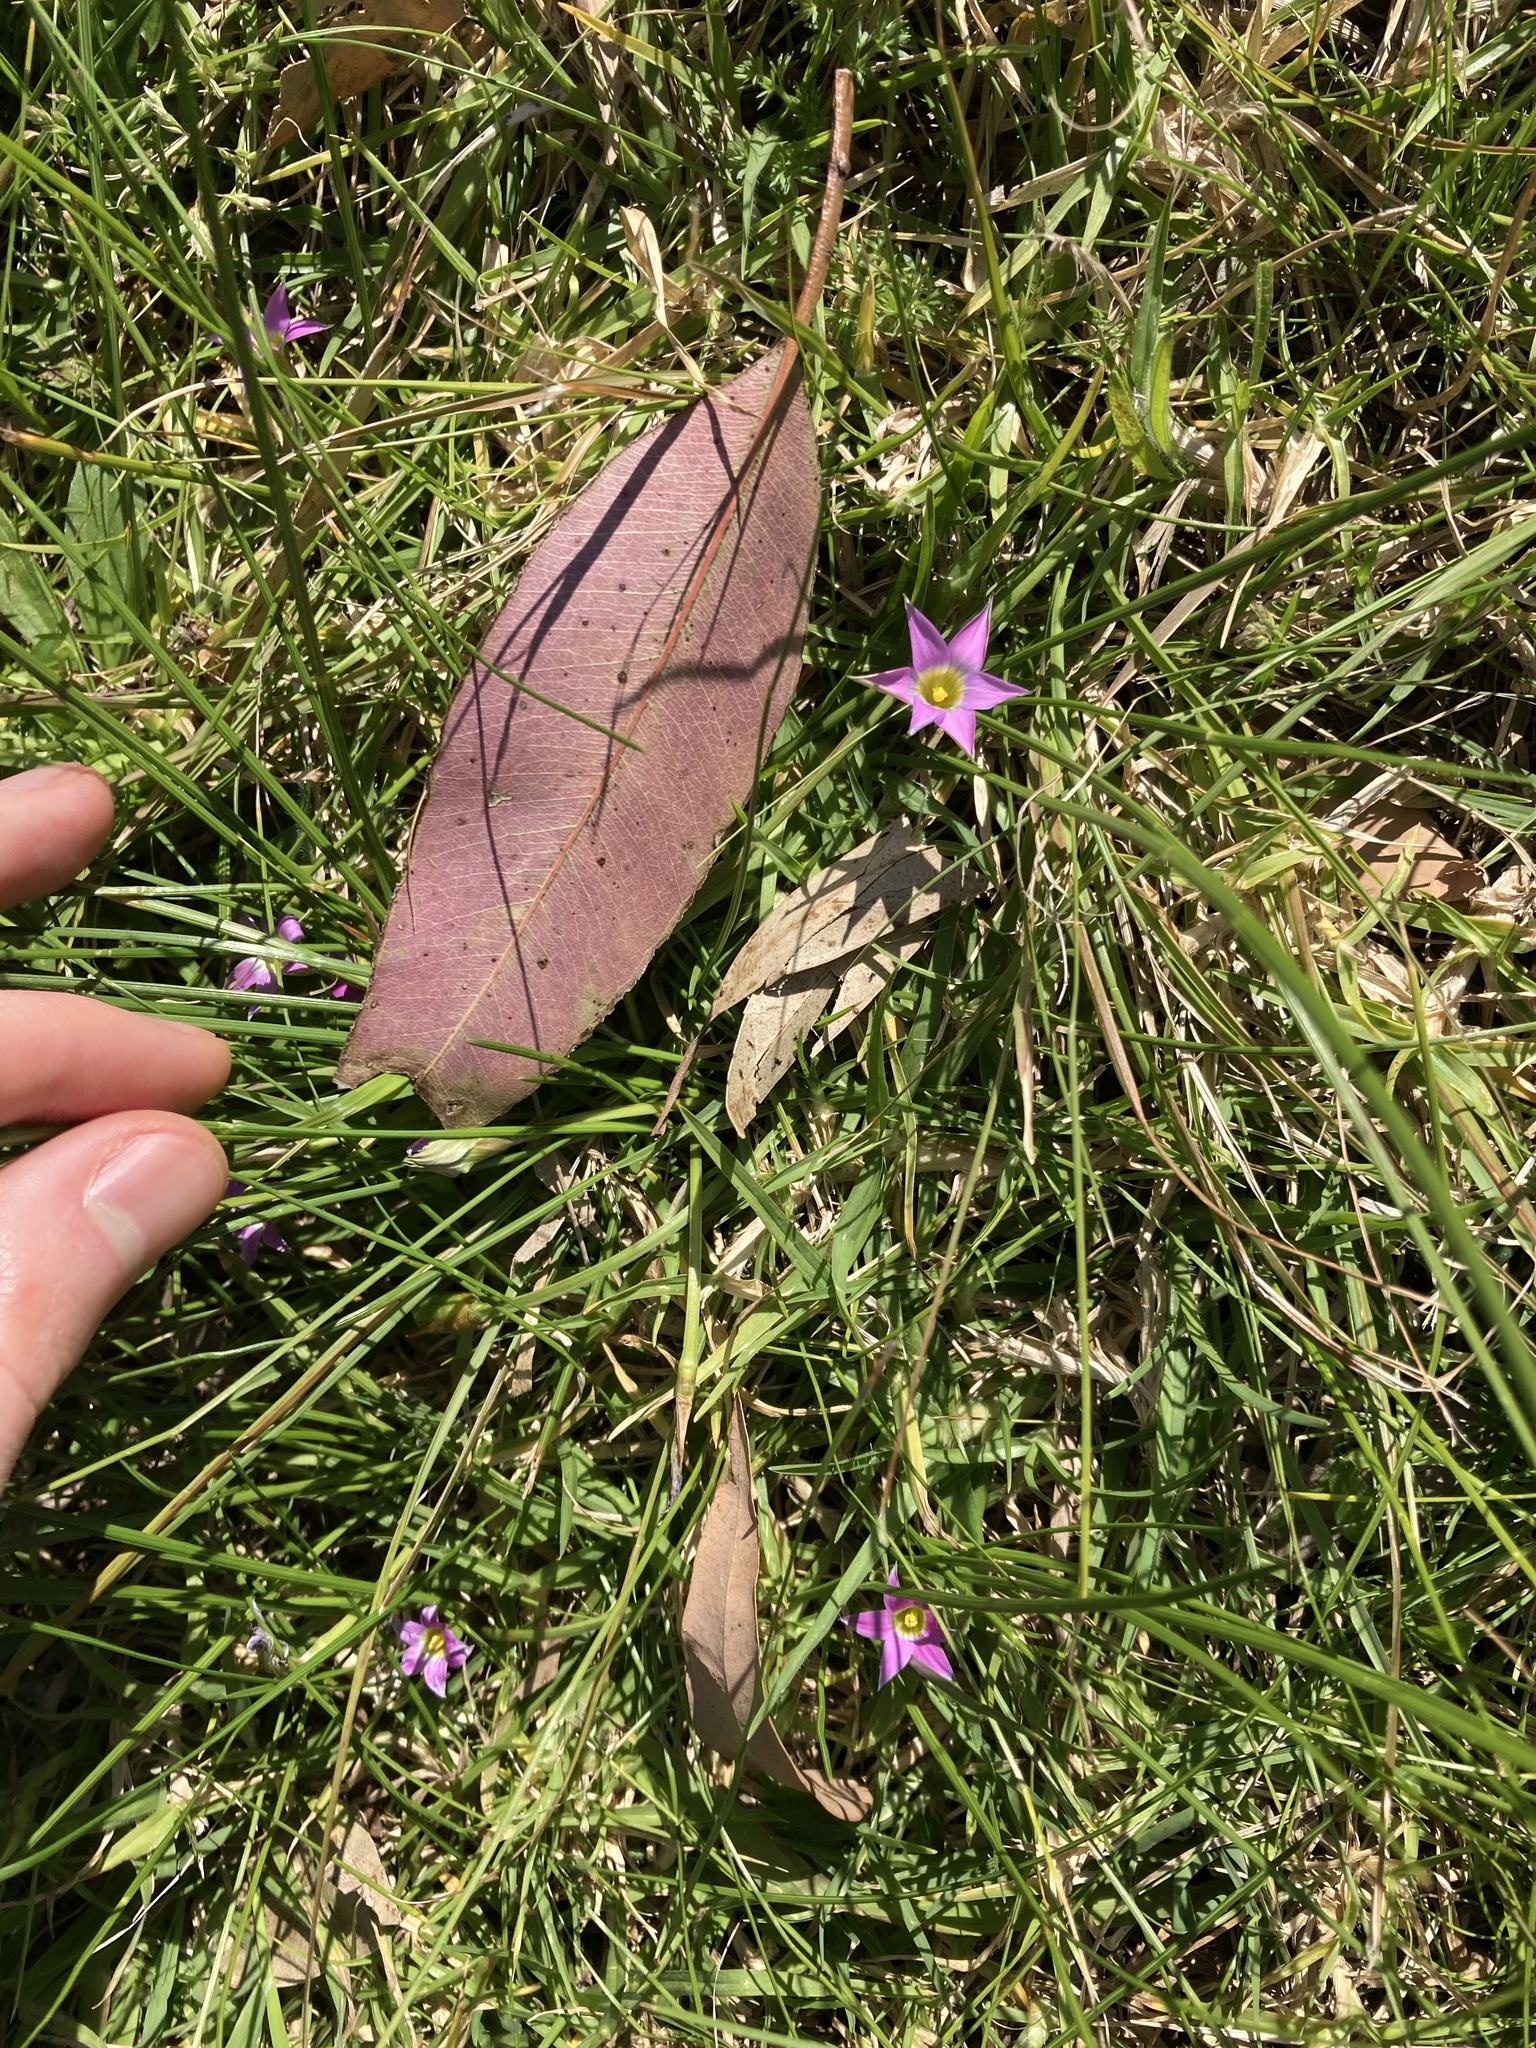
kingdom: Plantae
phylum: Tracheophyta
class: Liliopsida
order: Asparagales
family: Iridaceae
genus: Romulea
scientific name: Romulea rosea
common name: Oniongrass
